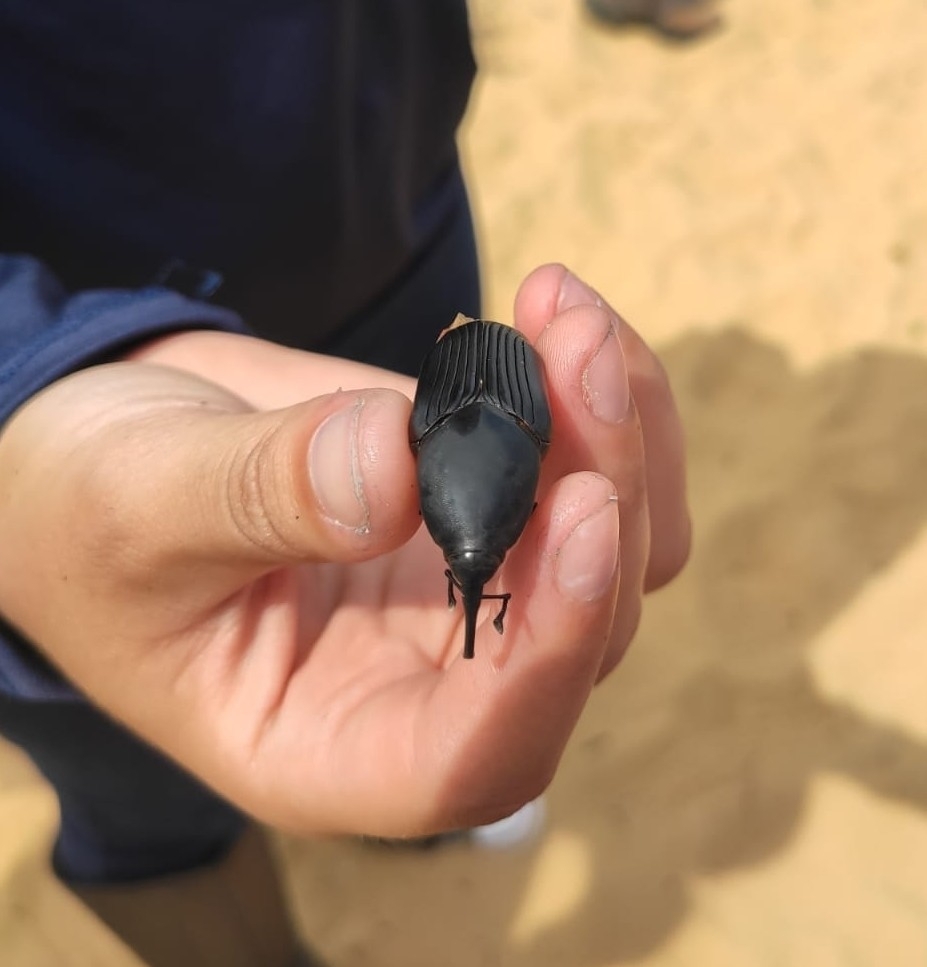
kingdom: Animalia
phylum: Arthropoda
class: Insecta
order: Coleoptera
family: Dryophthoridae
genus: Dynamis
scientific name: Dynamis borassi
